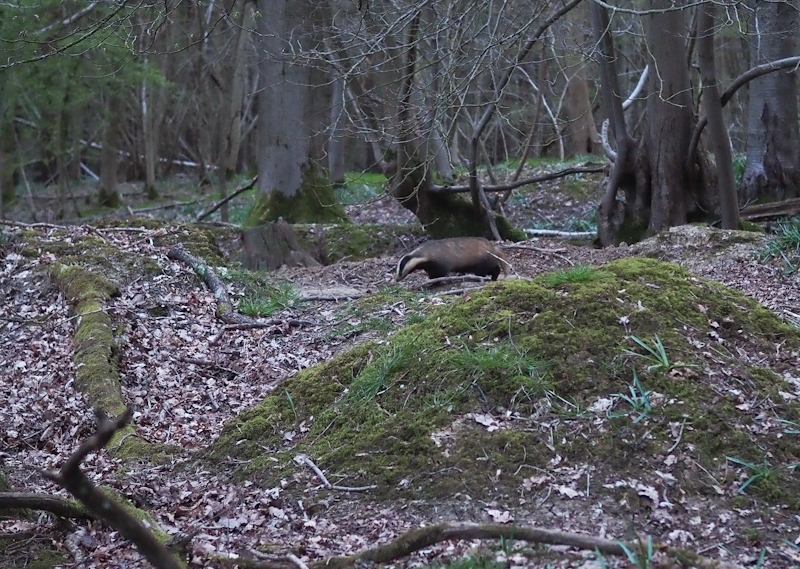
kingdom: Animalia
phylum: Chordata
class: Mammalia
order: Carnivora
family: Mustelidae
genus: Meles
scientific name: Meles meles
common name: Eurasian badger
